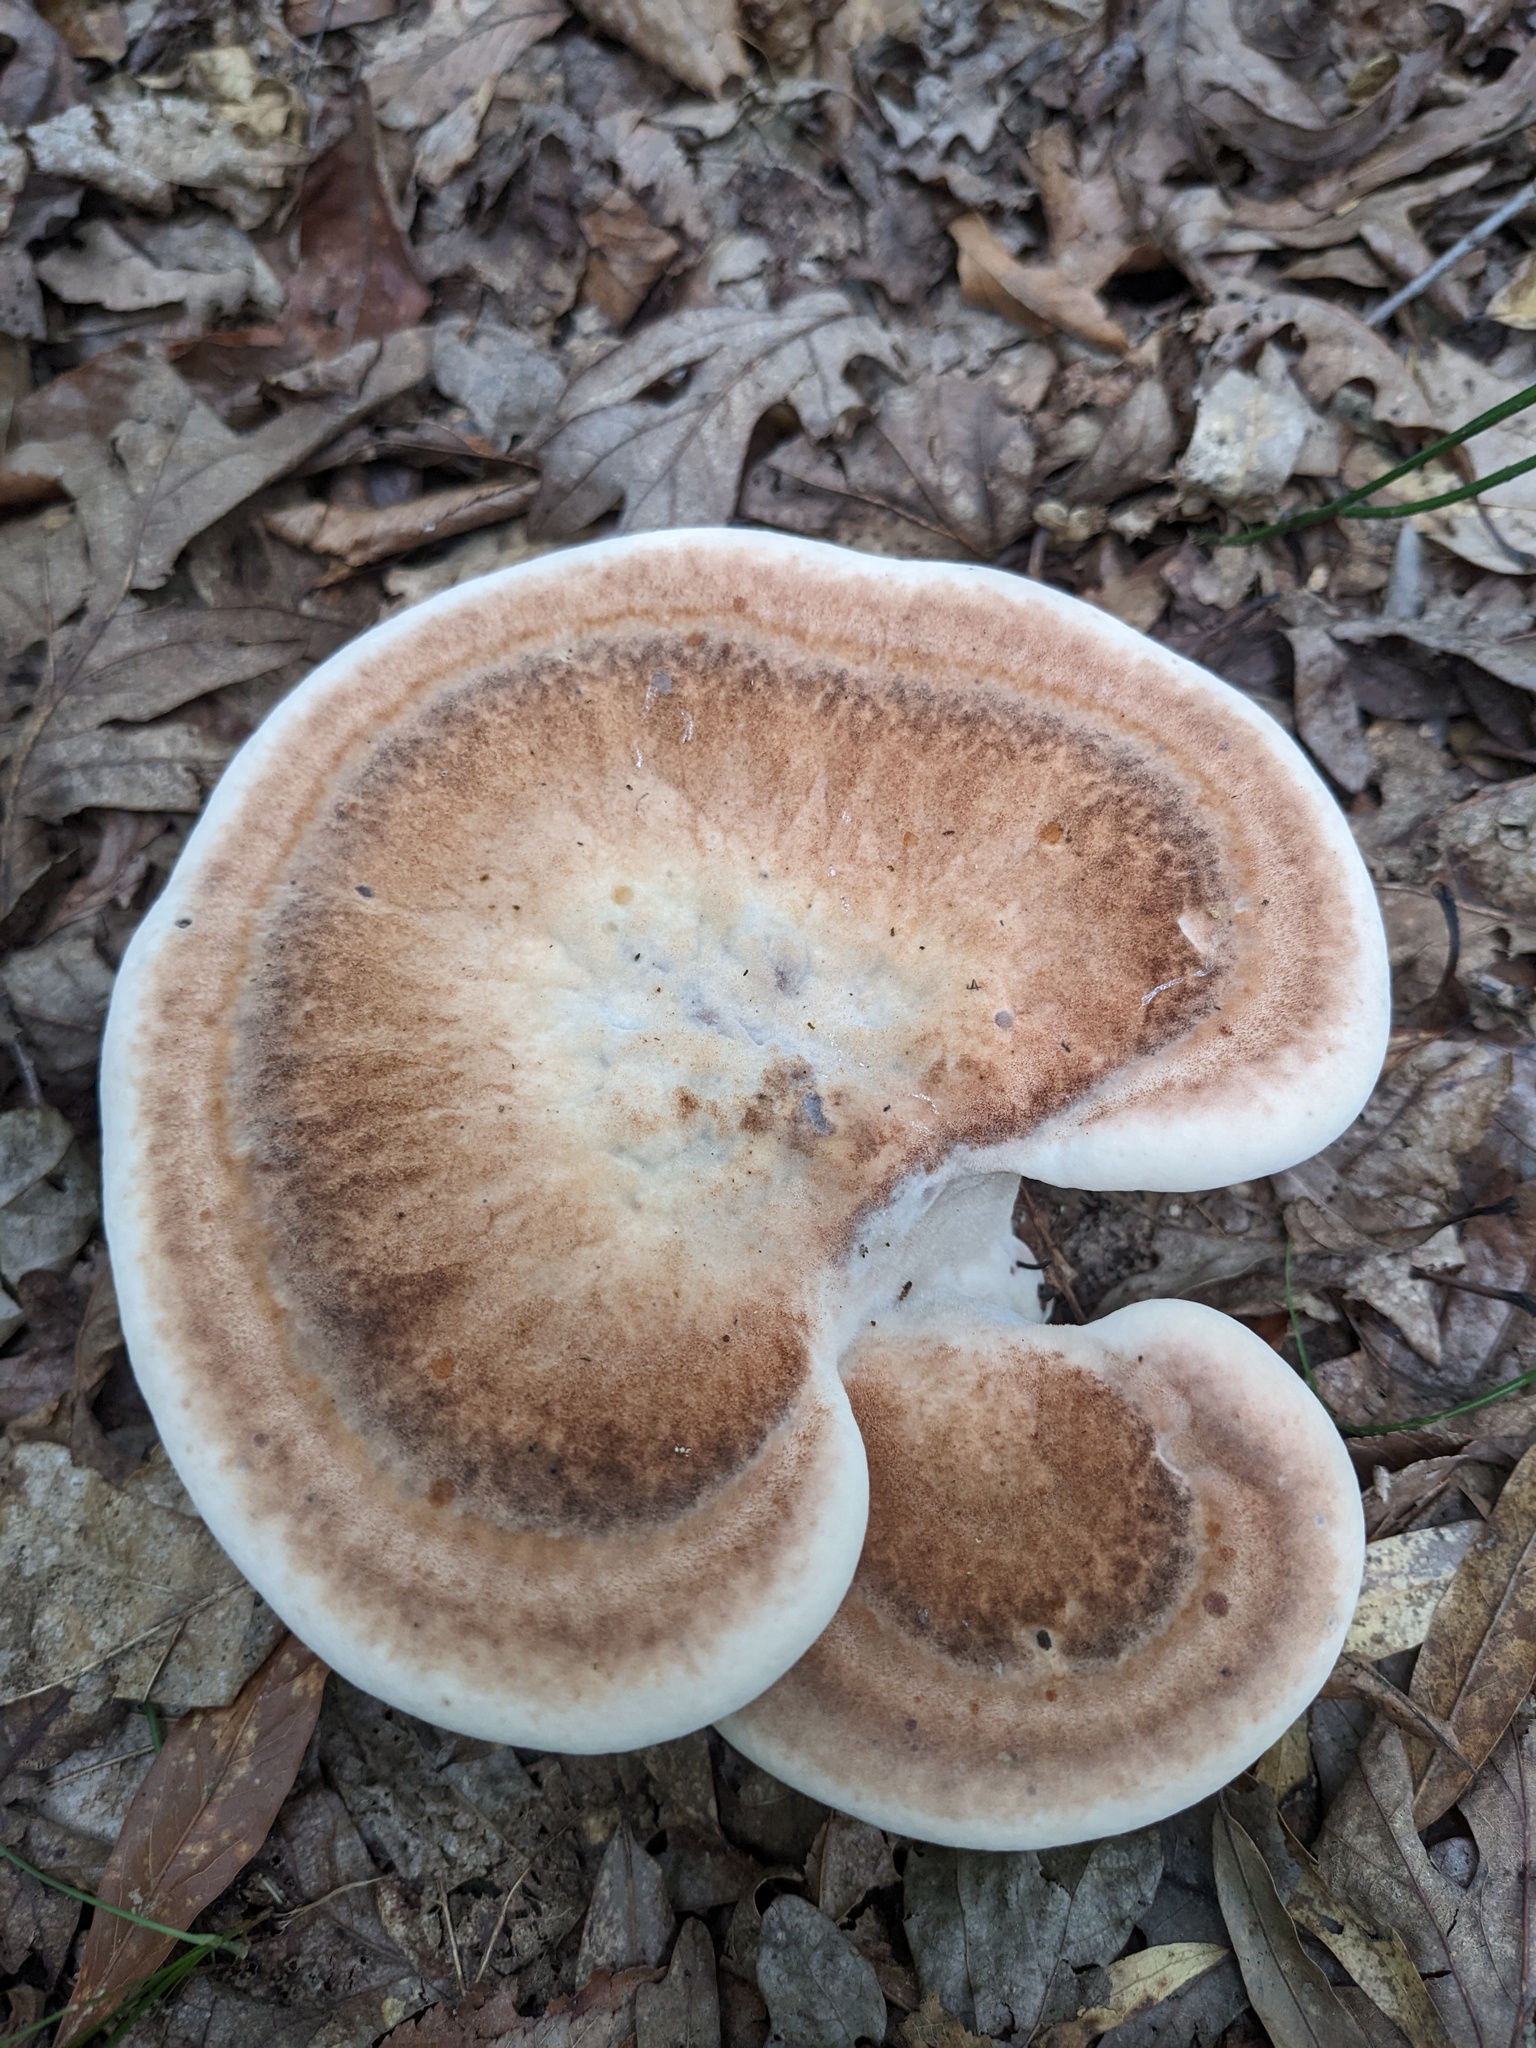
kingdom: Fungi
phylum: Basidiomycota
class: Agaricomycetes
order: Polyporales
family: Laetiporaceae
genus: Berkcurtia
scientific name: Berkcurtia persicina
